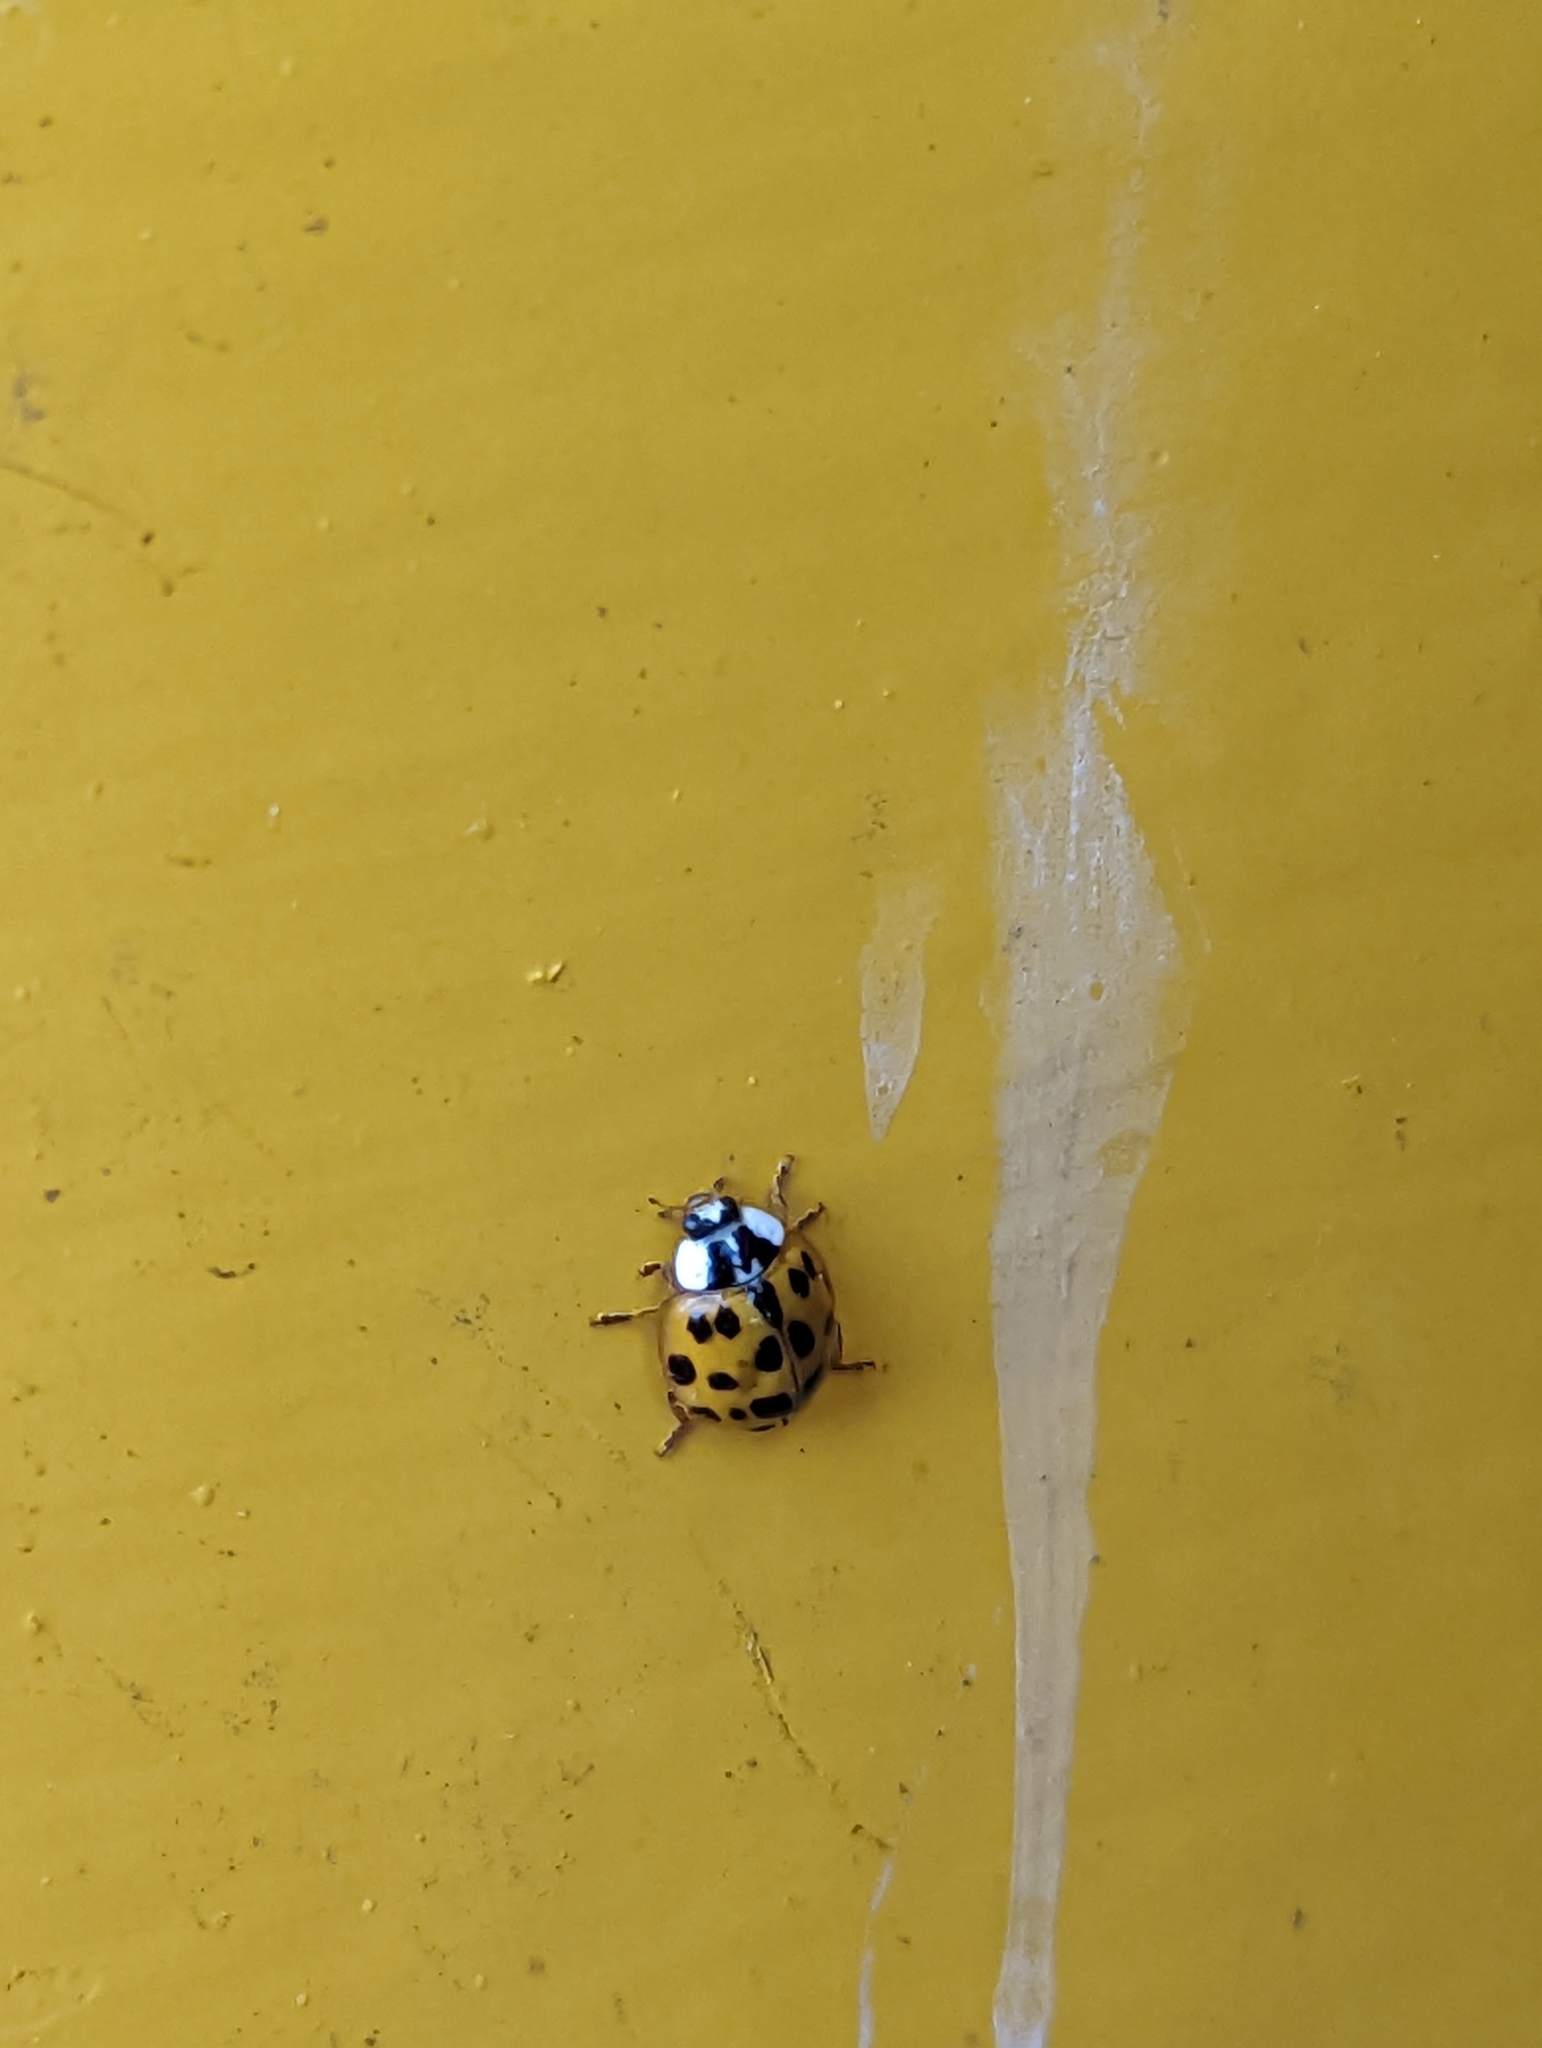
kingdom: Animalia
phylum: Arthropoda
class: Insecta
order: Coleoptera
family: Coccinellidae
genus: Harmonia
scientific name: Harmonia axyridis
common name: Harlequin ladybird
